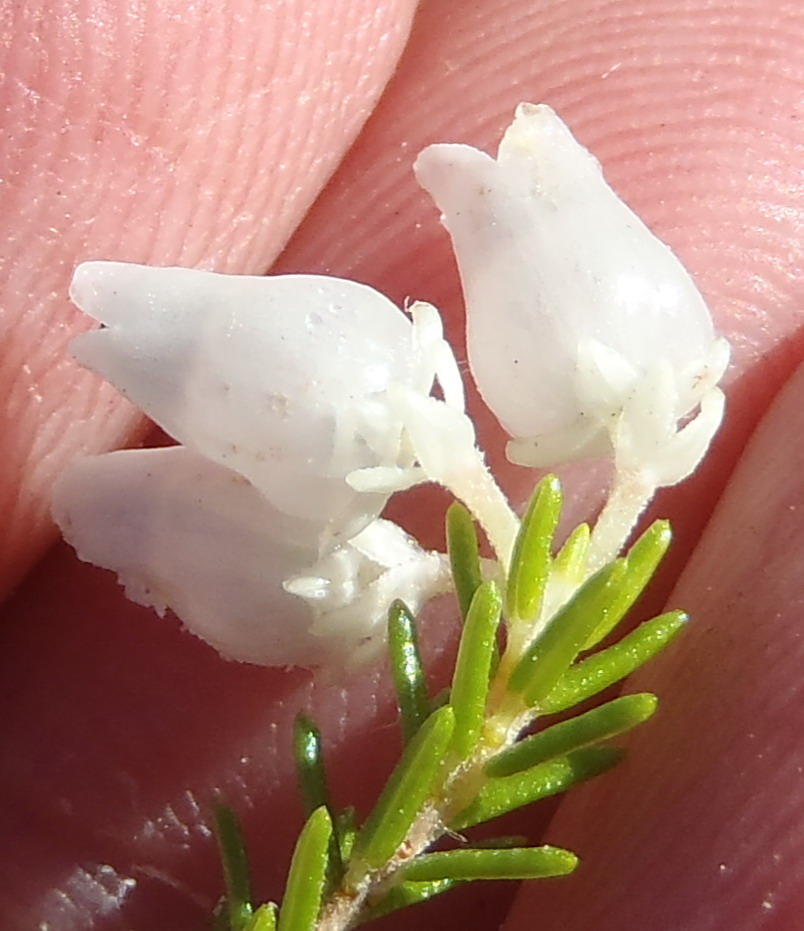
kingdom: Plantae
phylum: Tracheophyta
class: Magnoliopsida
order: Ericales
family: Ericaceae
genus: Erica
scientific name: Erica glomiflora
